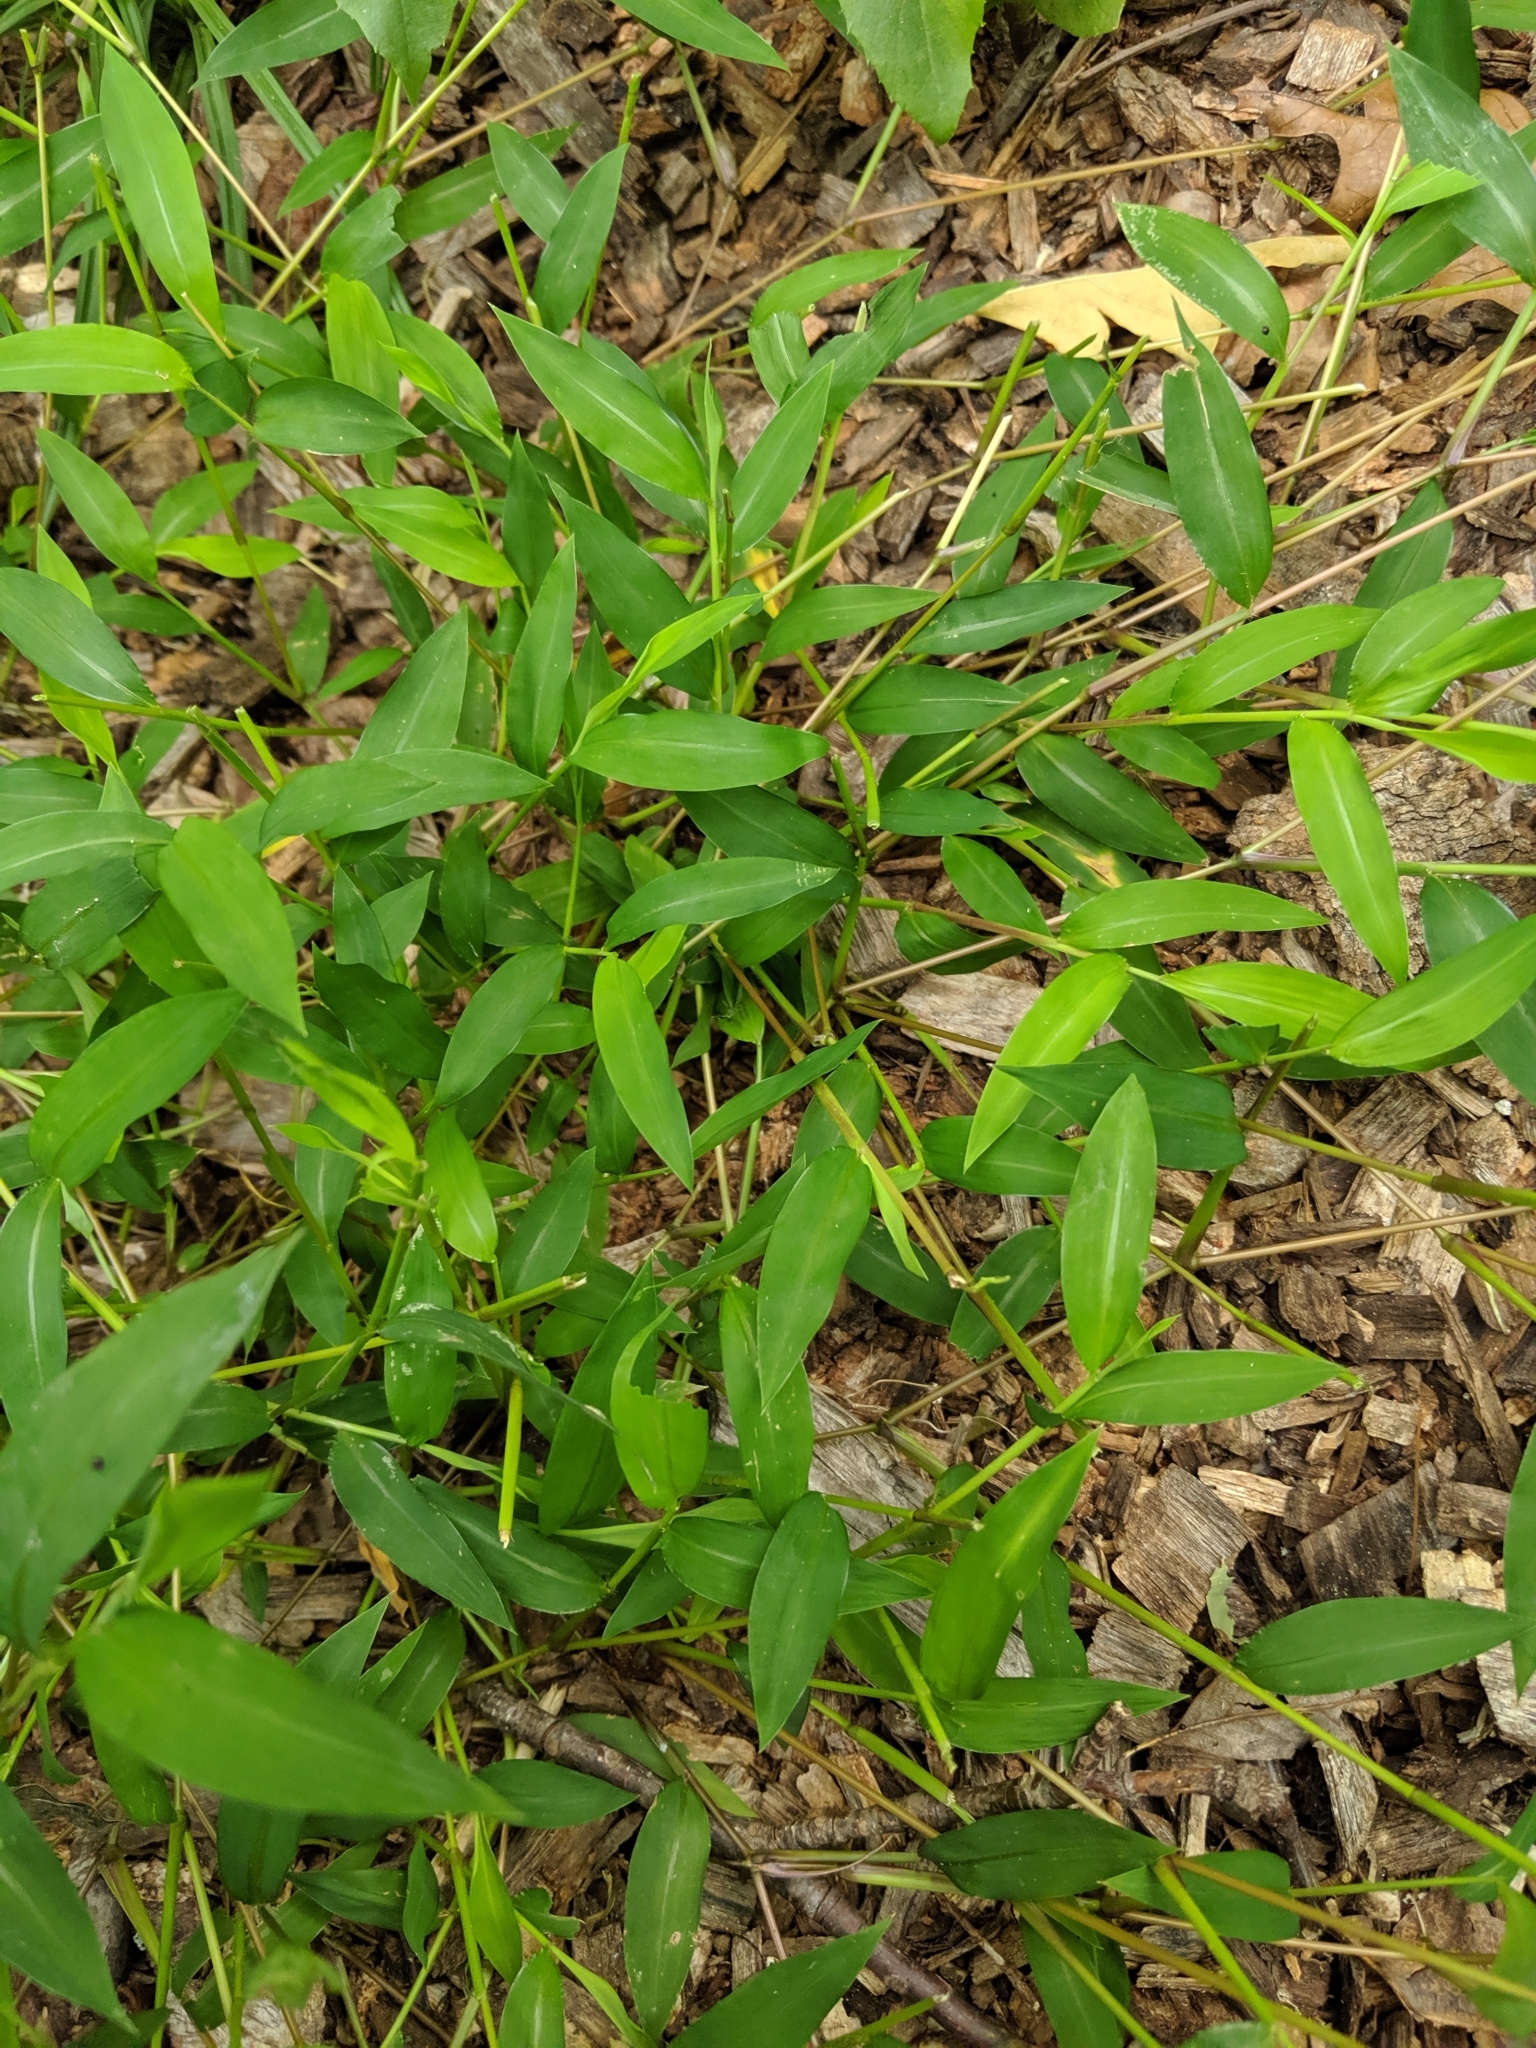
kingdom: Plantae
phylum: Tracheophyta
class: Liliopsida
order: Poales
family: Poaceae
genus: Microstegium
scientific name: Microstegium vimineum
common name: Japanese stiltgrass
